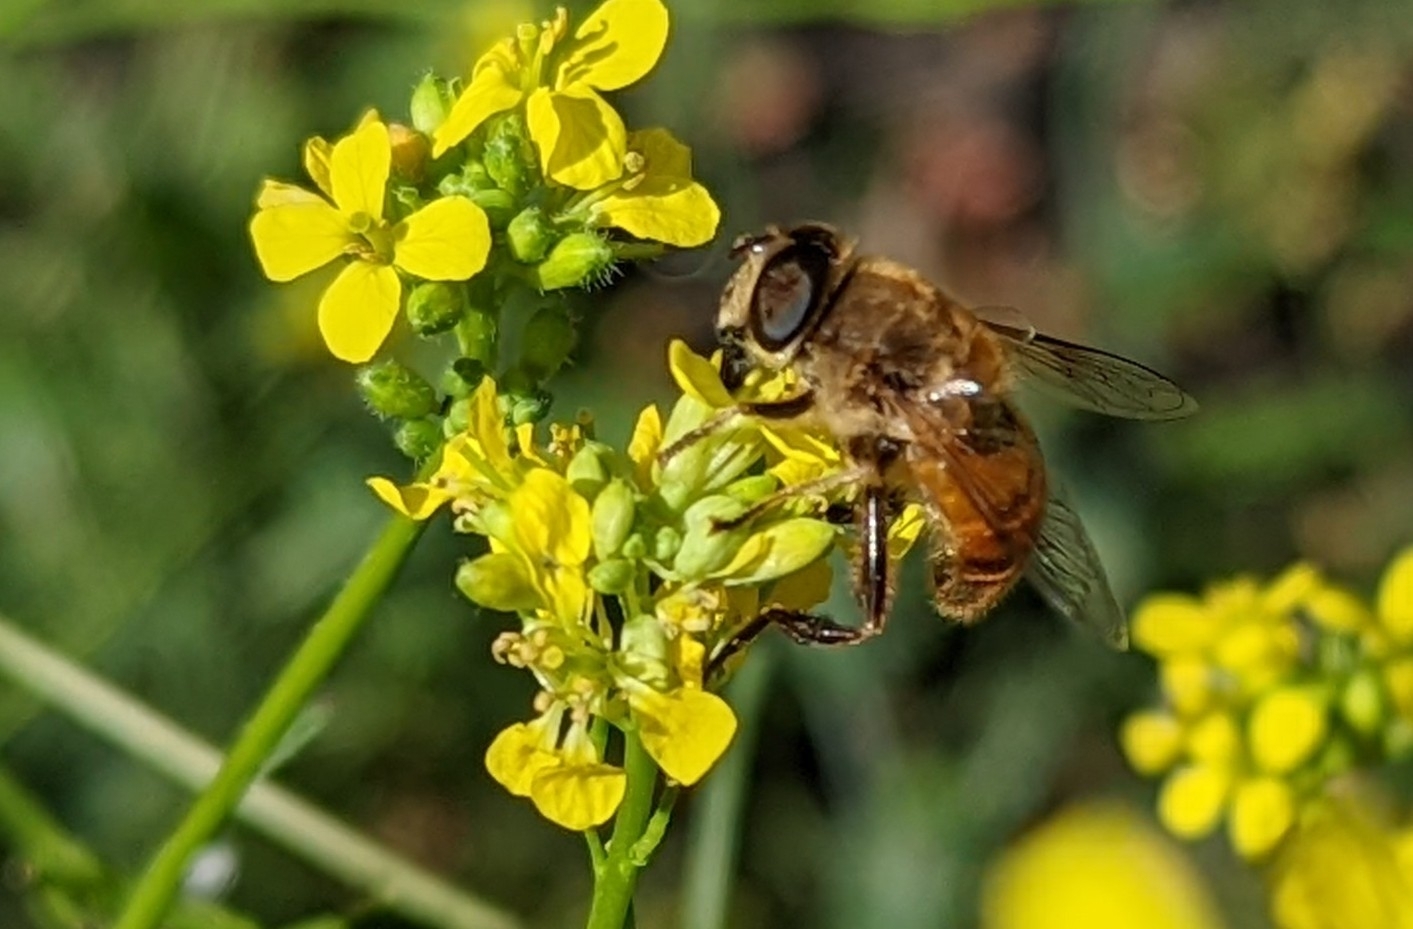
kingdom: Animalia
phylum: Arthropoda
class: Insecta
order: Diptera
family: Syrphidae
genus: Eristalis
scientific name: Eristalis tenax
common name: Drone fly
